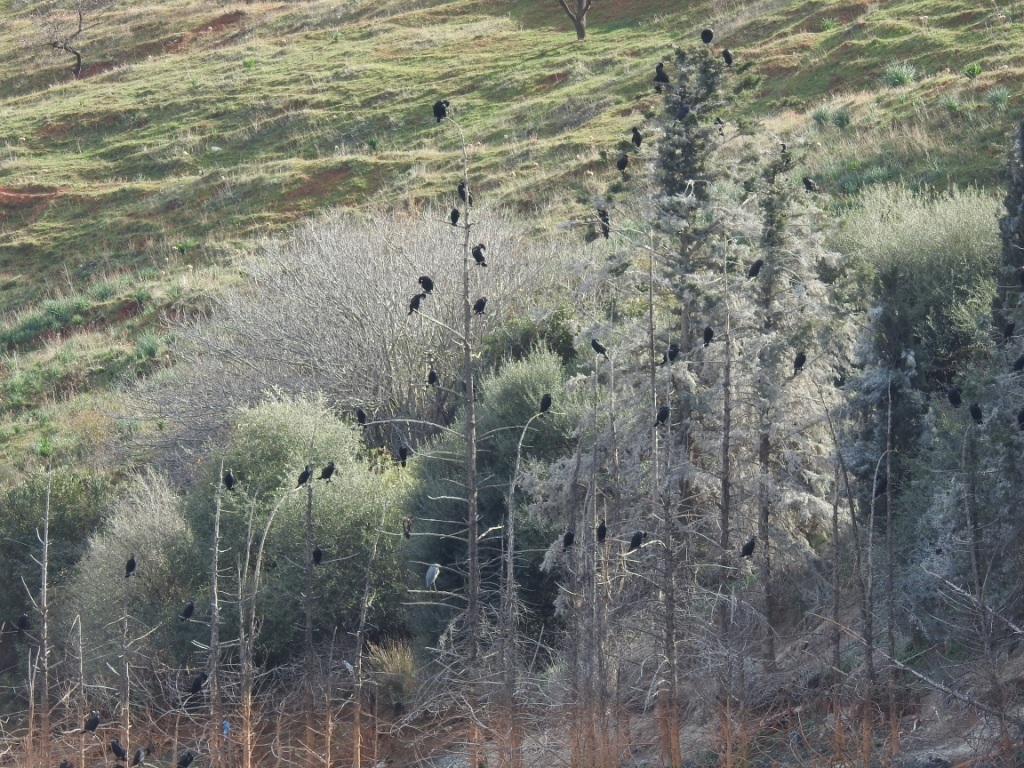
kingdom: Animalia
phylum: Chordata
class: Aves
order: Suliformes
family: Phalacrocoracidae
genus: Phalacrocorax
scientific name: Phalacrocorax carbo
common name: Great cormorant
